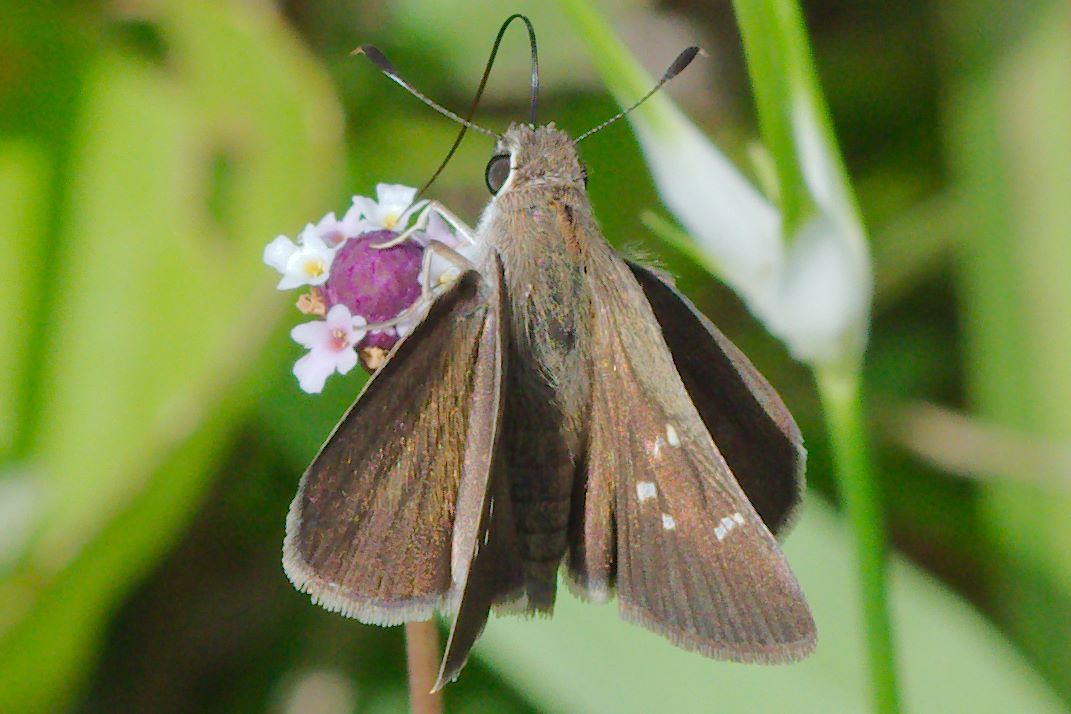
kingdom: Animalia
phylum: Arthropoda
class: Insecta
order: Lepidoptera
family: Hesperiidae
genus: Lerodea
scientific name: Lerodea eufala
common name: Eufala skipper
